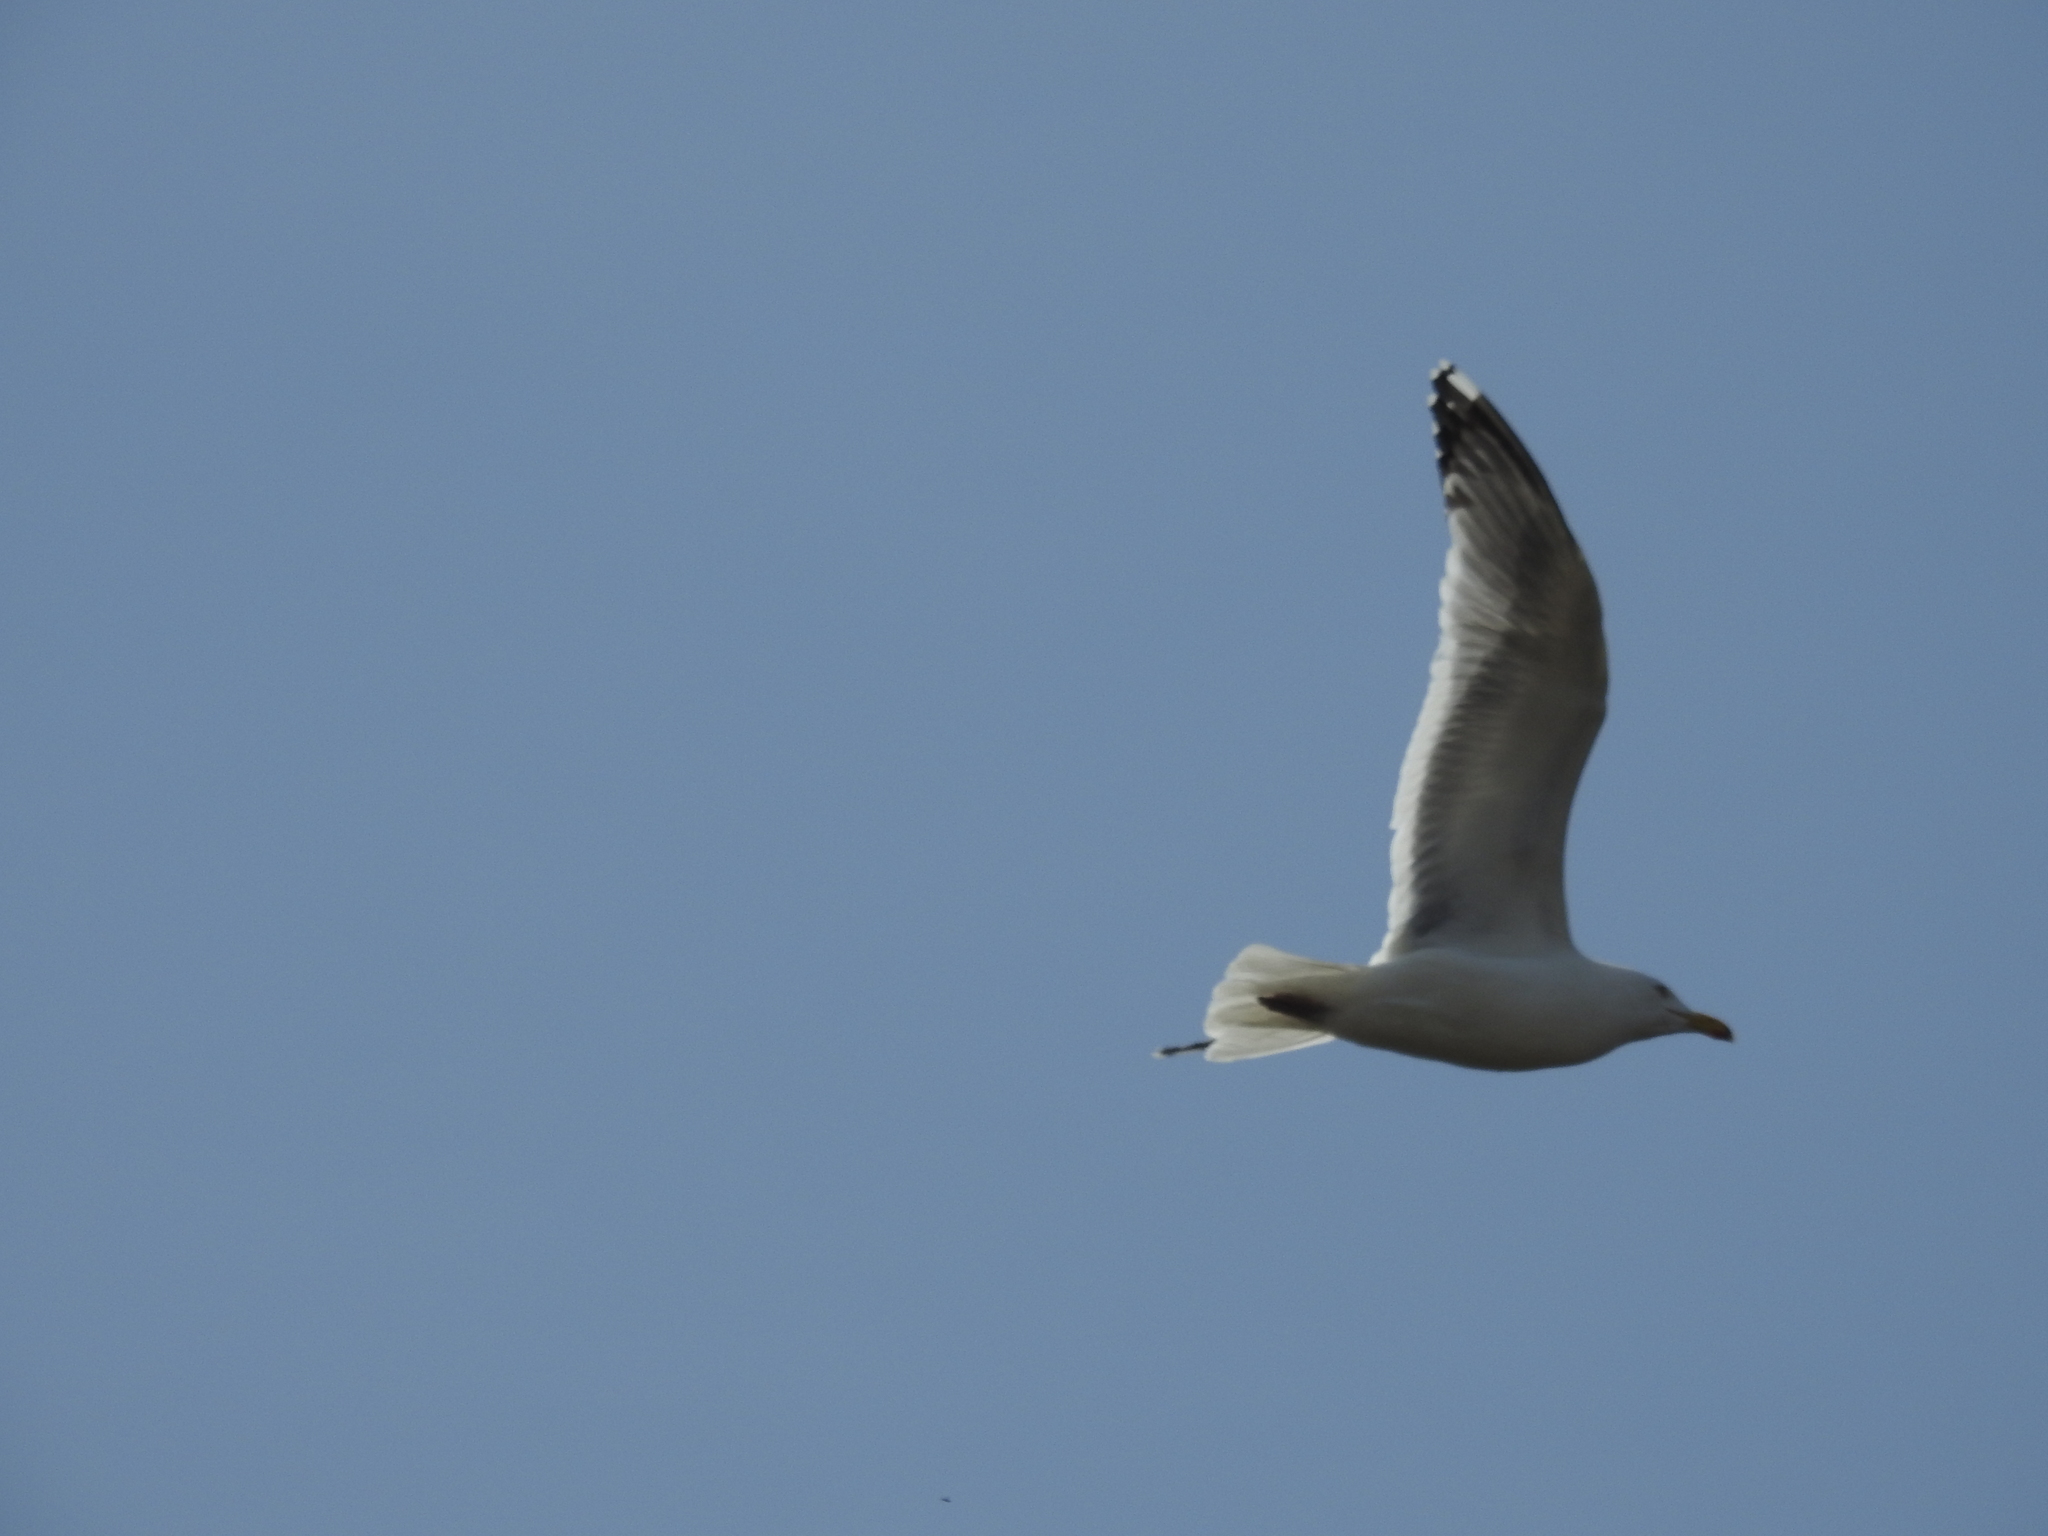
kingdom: Animalia
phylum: Chordata
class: Aves
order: Charadriiformes
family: Laridae
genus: Larus
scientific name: Larus argentatus
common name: Herring gull
